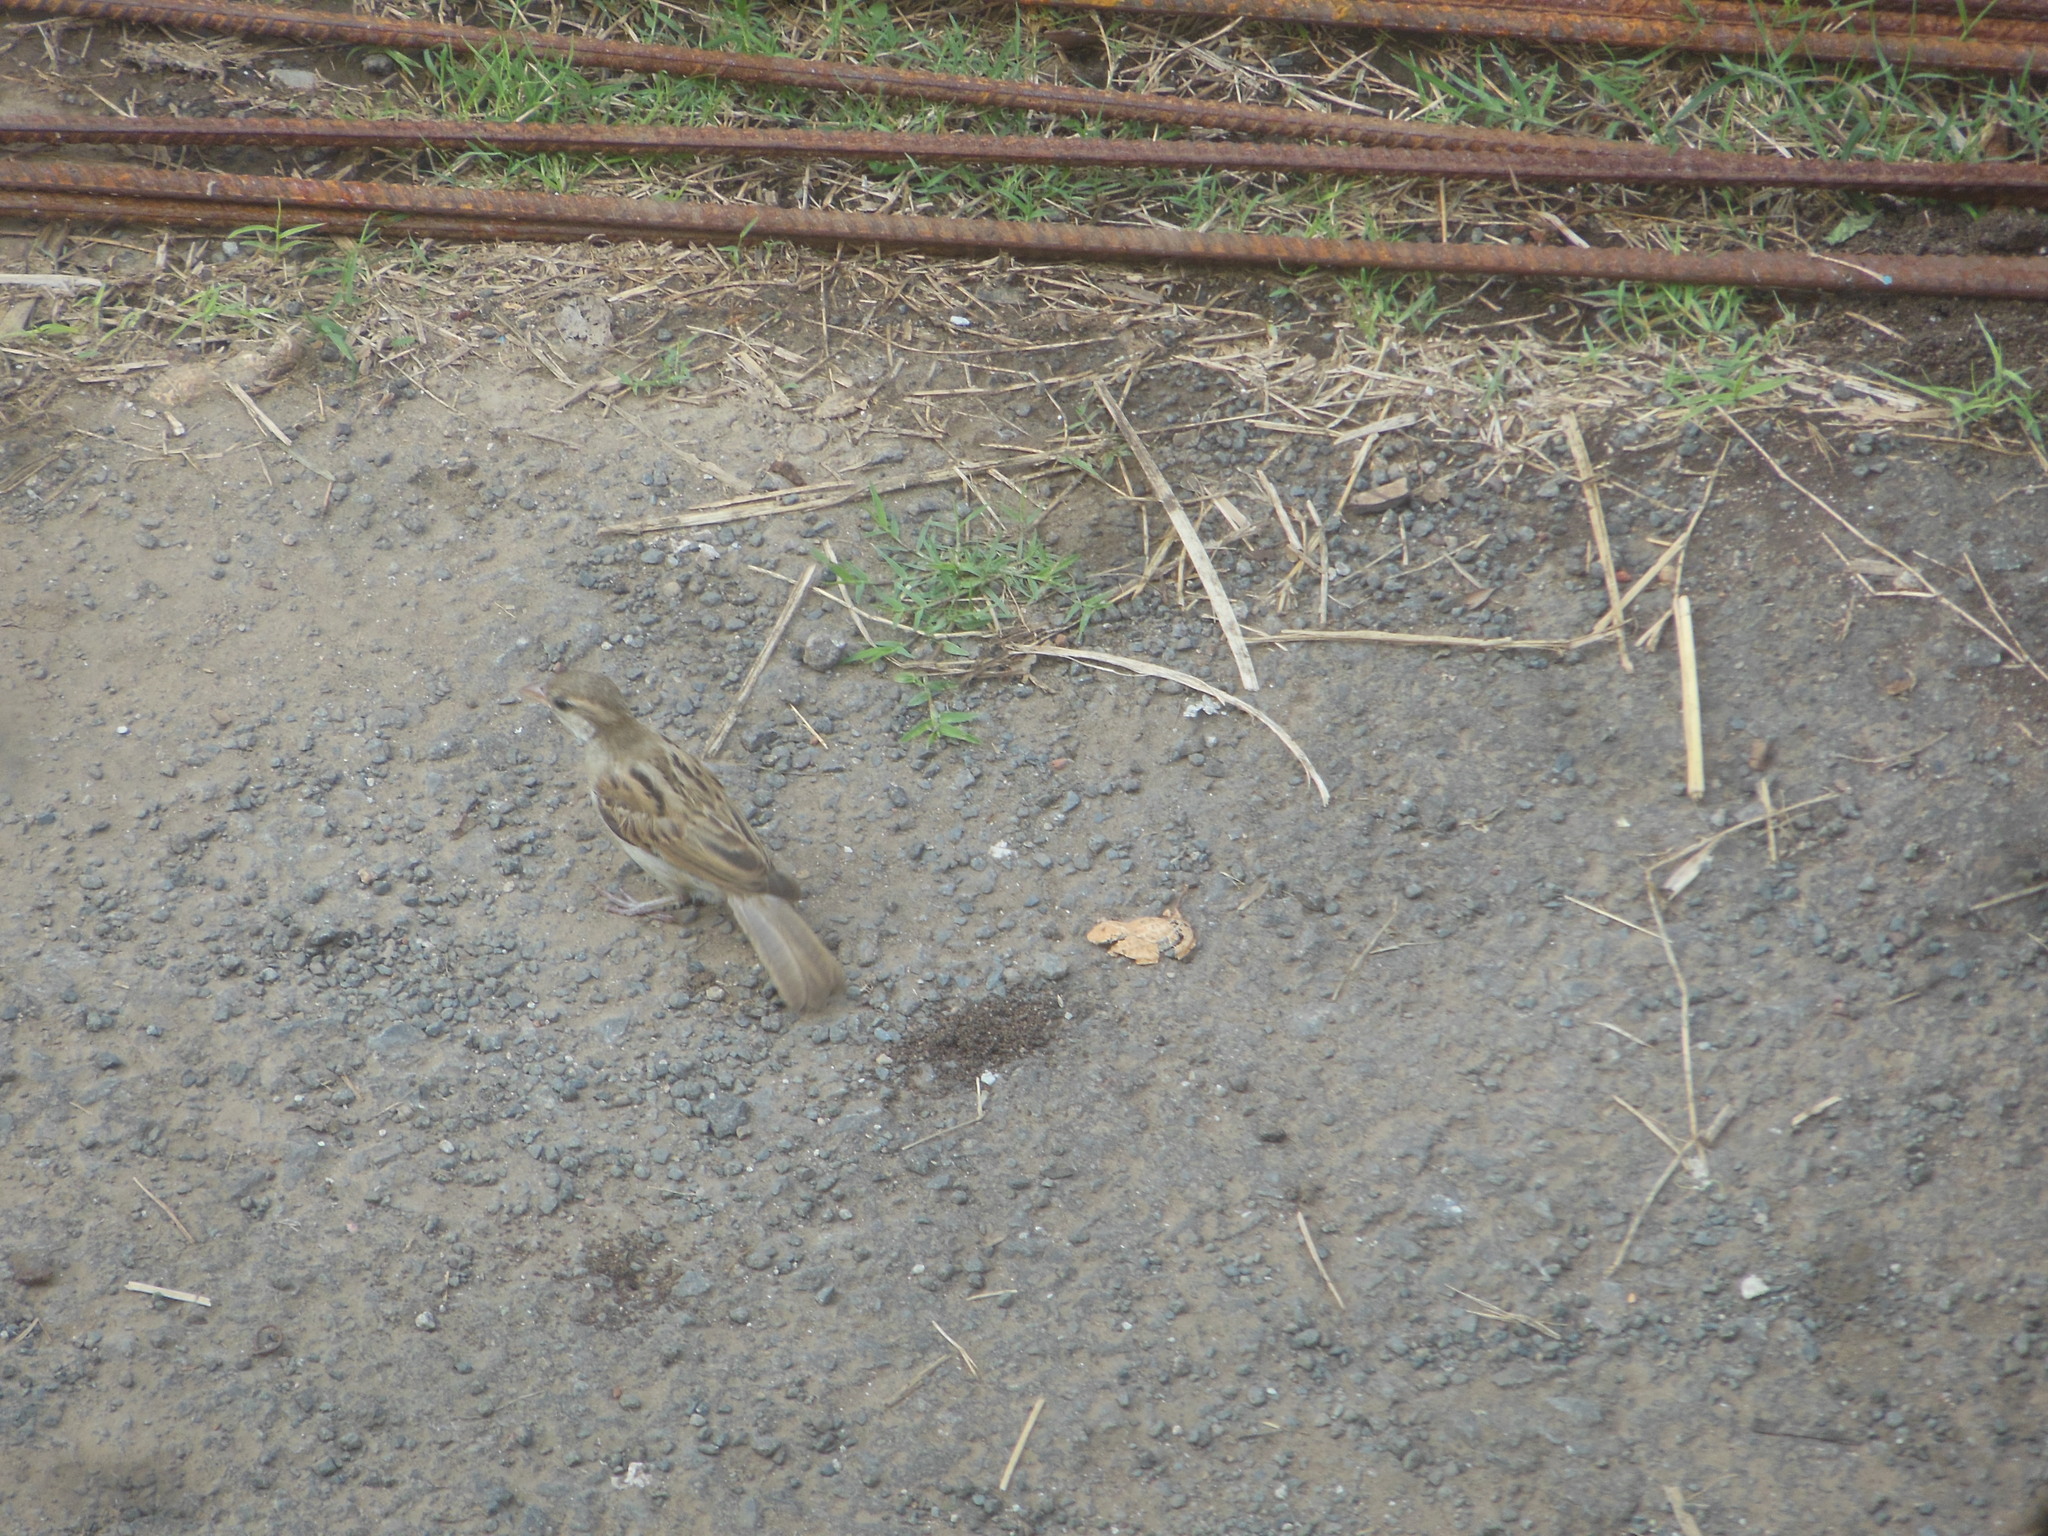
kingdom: Animalia
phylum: Chordata
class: Aves
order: Passeriformes
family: Passeridae
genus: Passer
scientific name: Passer domesticus
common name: House sparrow
